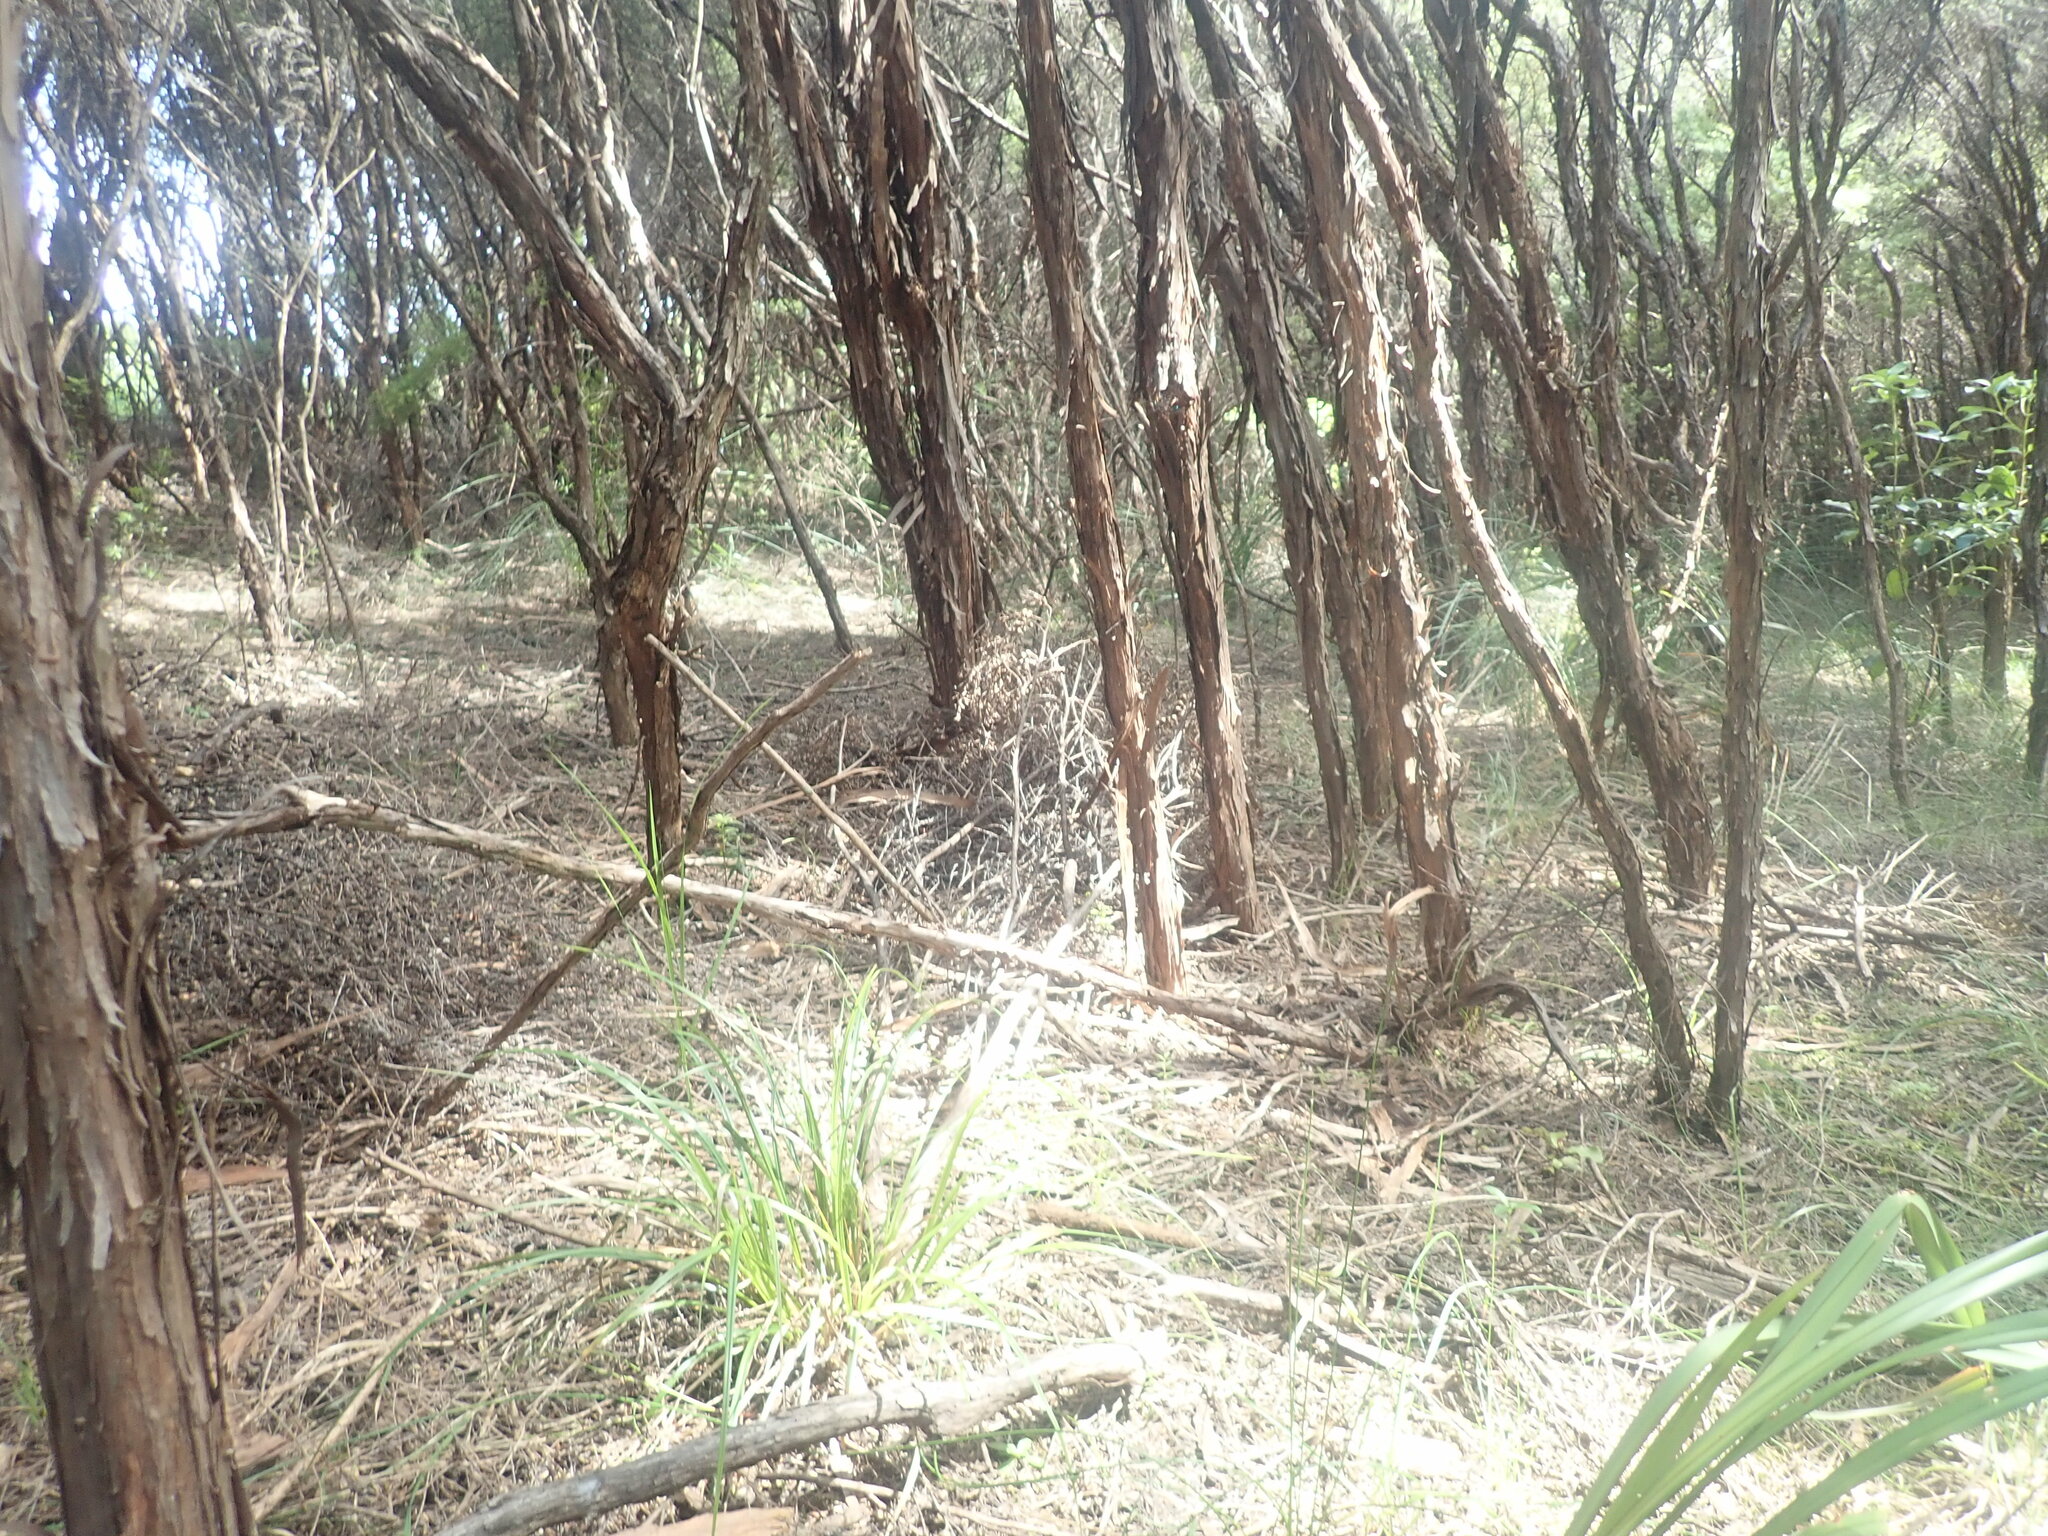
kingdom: Plantae
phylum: Tracheophyta
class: Magnoliopsida
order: Myrtales
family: Myrtaceae
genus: Leptospermum
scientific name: Leptospermum scoparium
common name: Broom tea-tree
